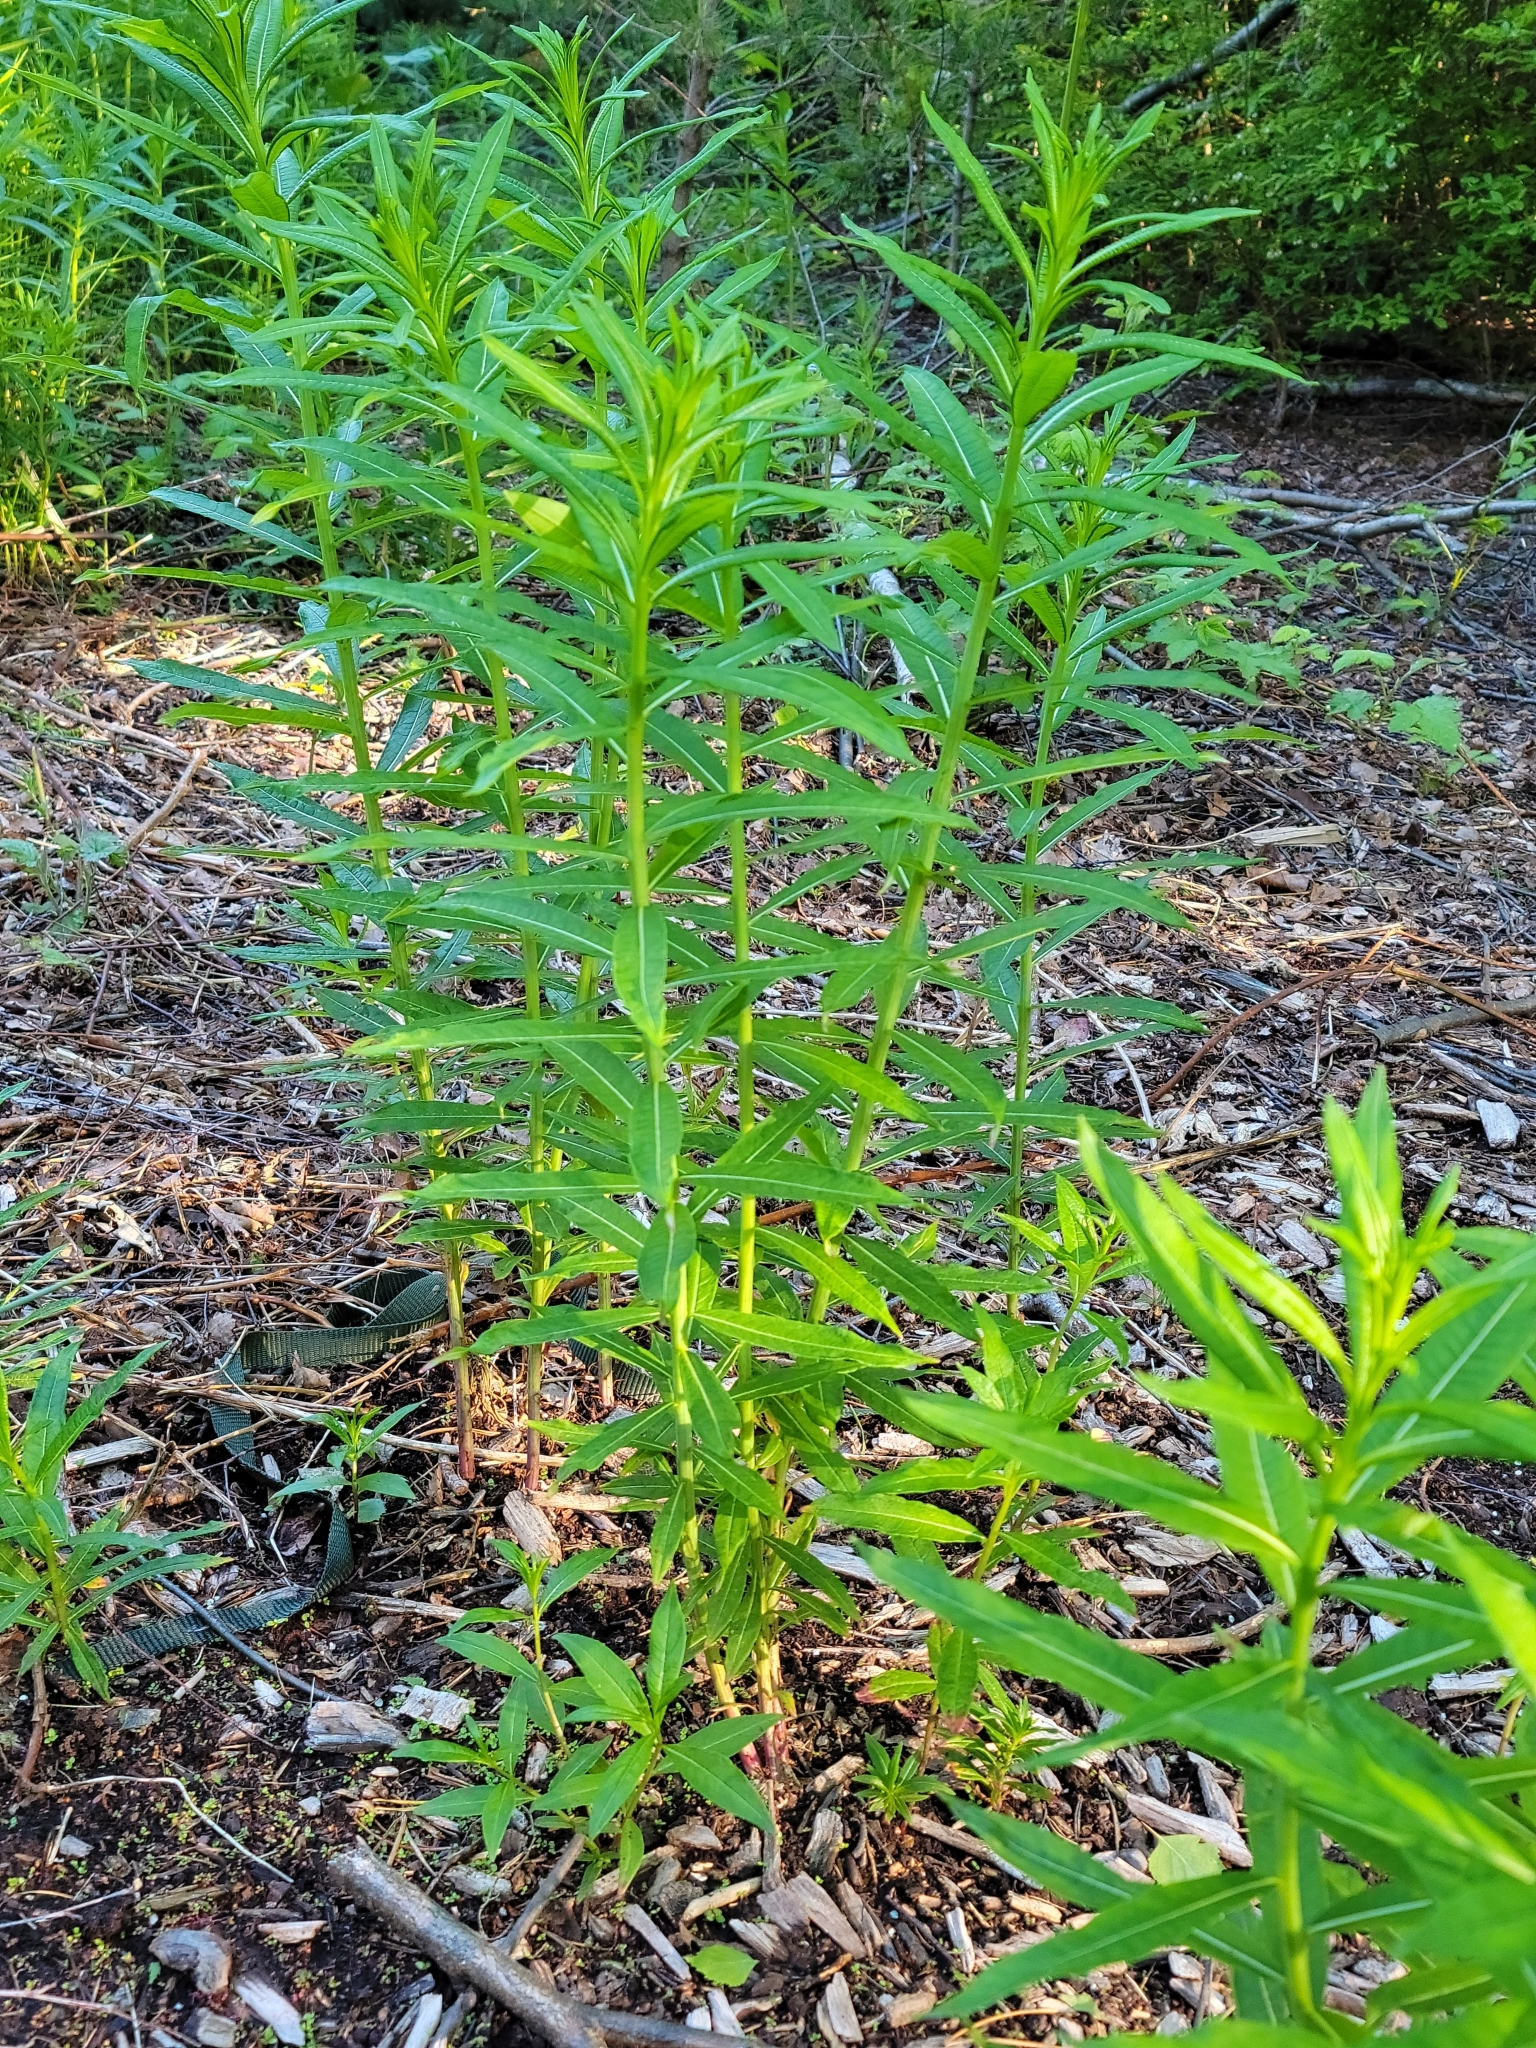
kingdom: Plantae
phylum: Tracheophyta
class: Magnoliopsida
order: Myrtales
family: Onagraceae
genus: Chamaenerion
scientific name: Chamaenerion angustifolium
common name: Fireweed
